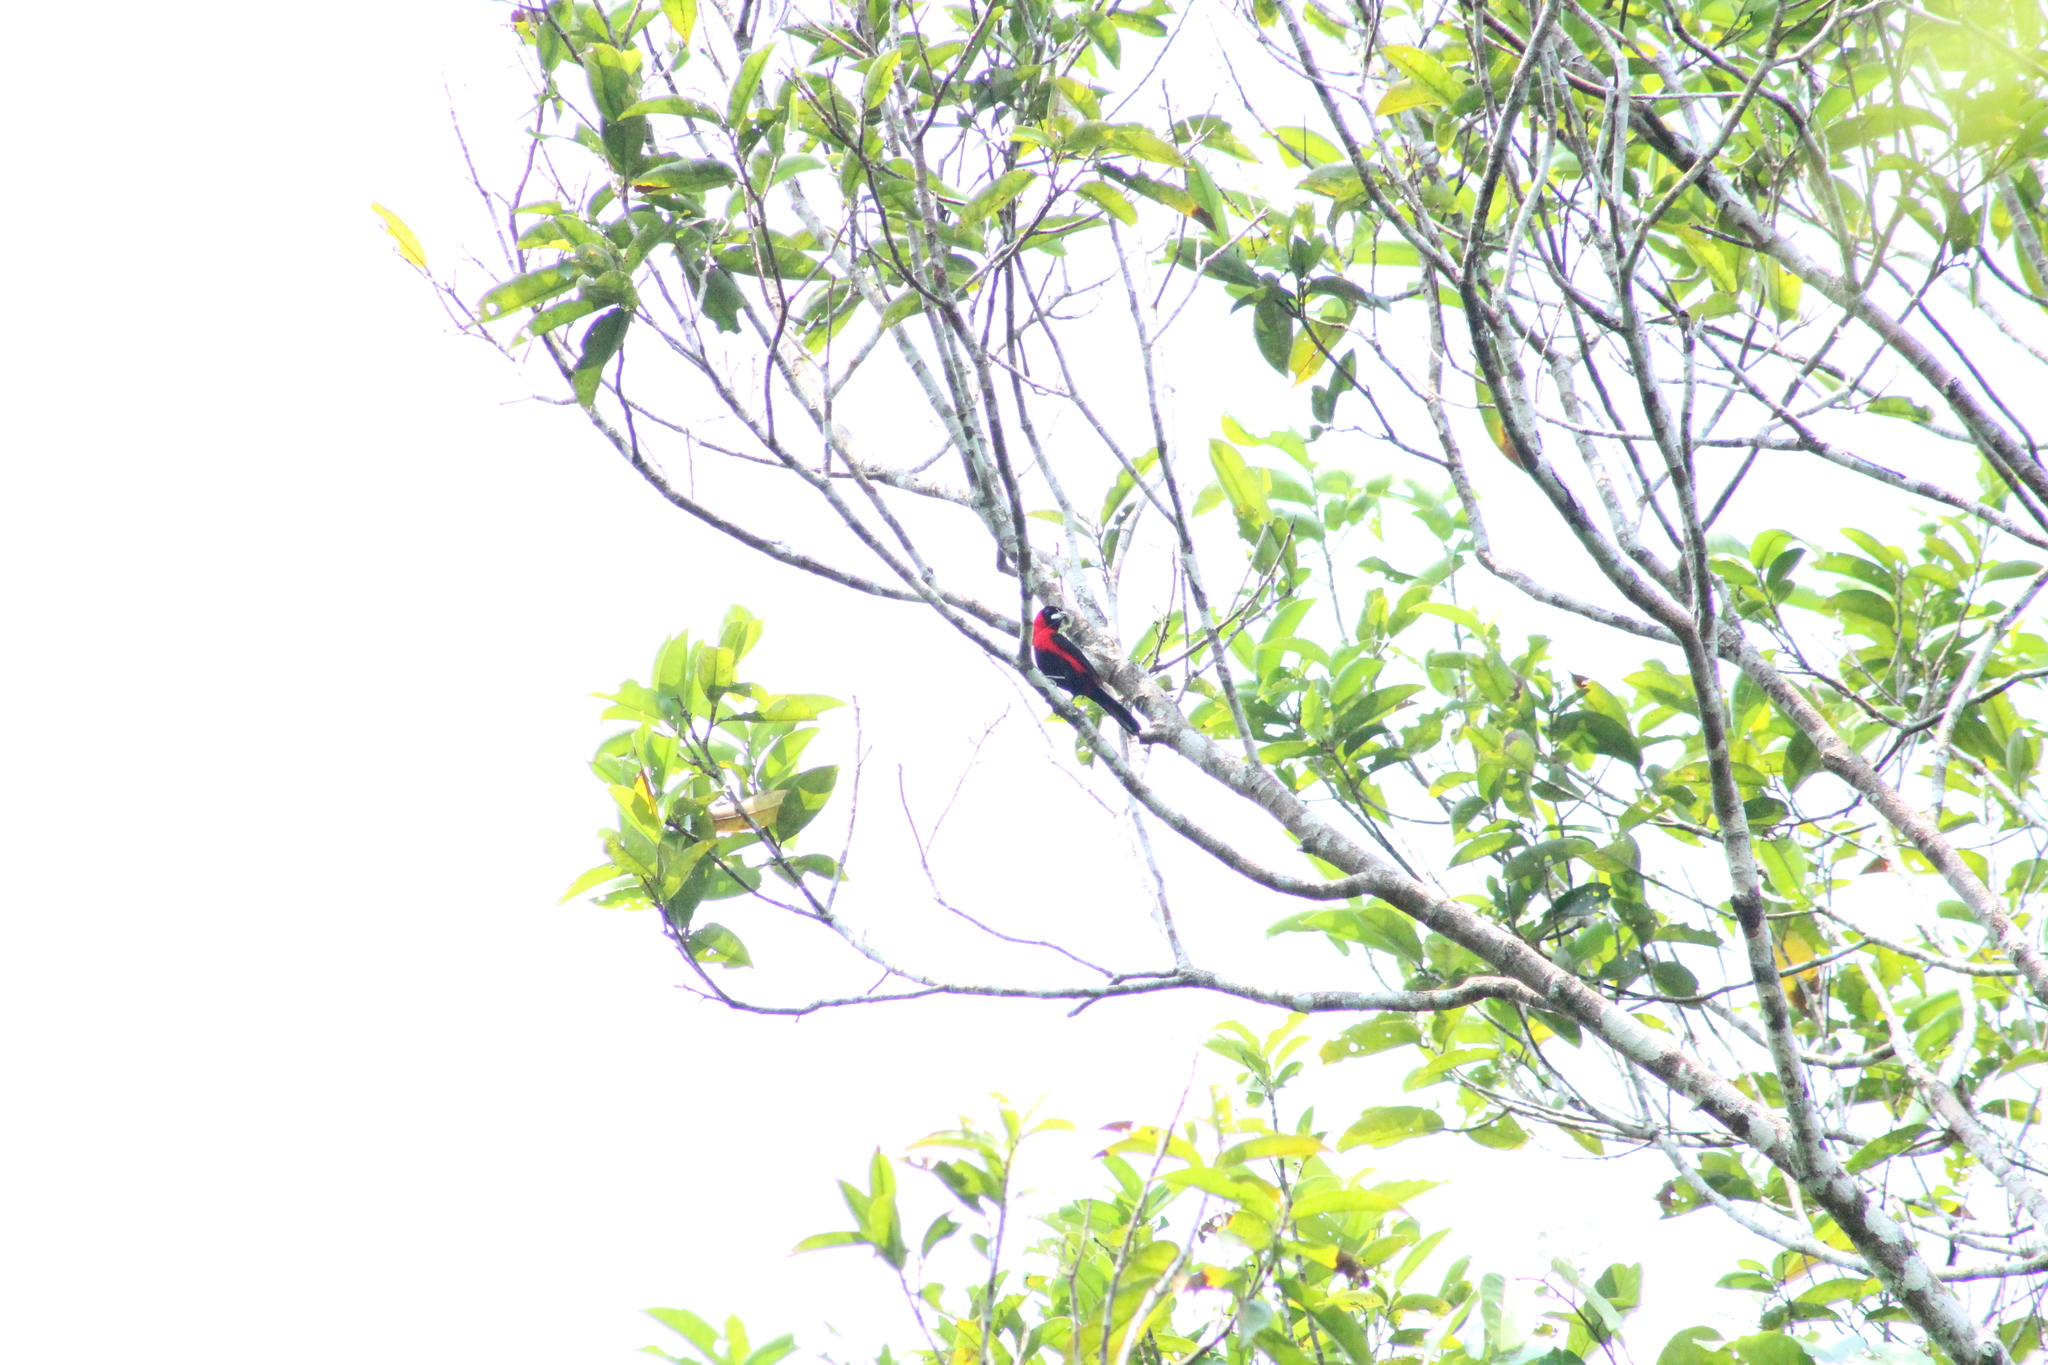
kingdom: Animalia
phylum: Chordata
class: Aves
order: Passeriformes
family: Thraupidae
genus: Ramphocelus
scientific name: Ramphocelus nigrogularis
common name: Masked crimson tanager
